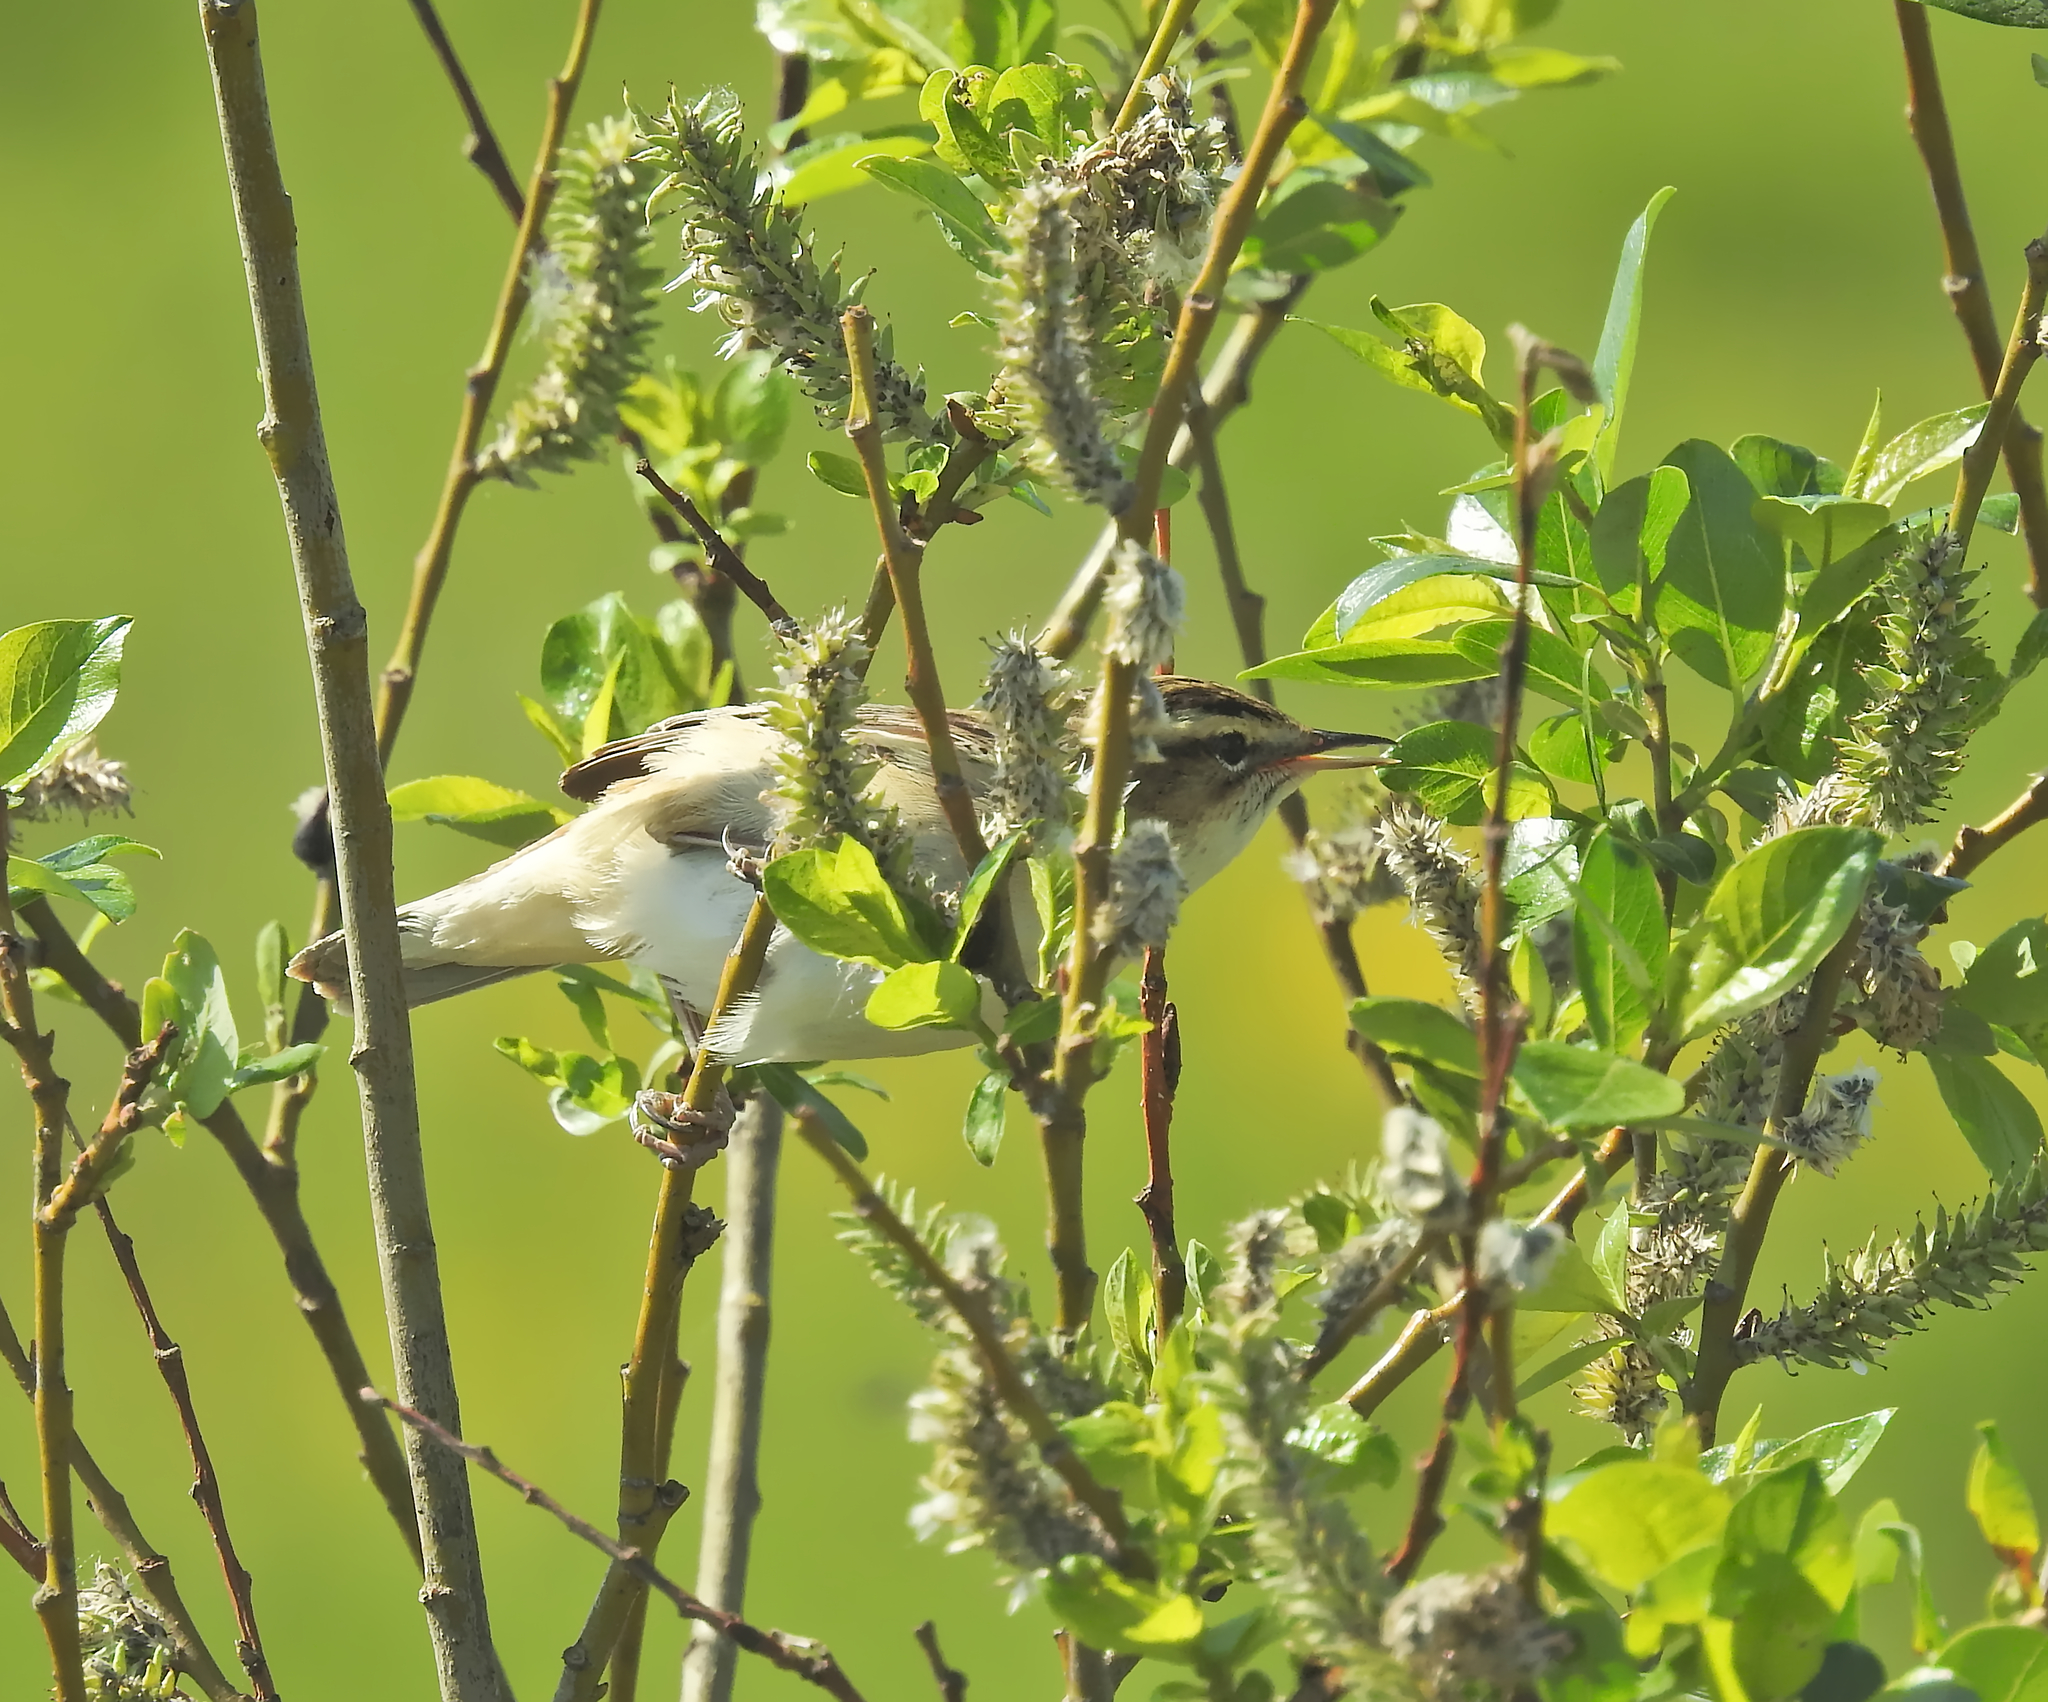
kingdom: Animalia
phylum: Chordata
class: Aves
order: Passeriformes
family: Acrocephalidae
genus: Acrocephalus
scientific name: Acrocephalus schoenobaenus
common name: Sedge warbler
